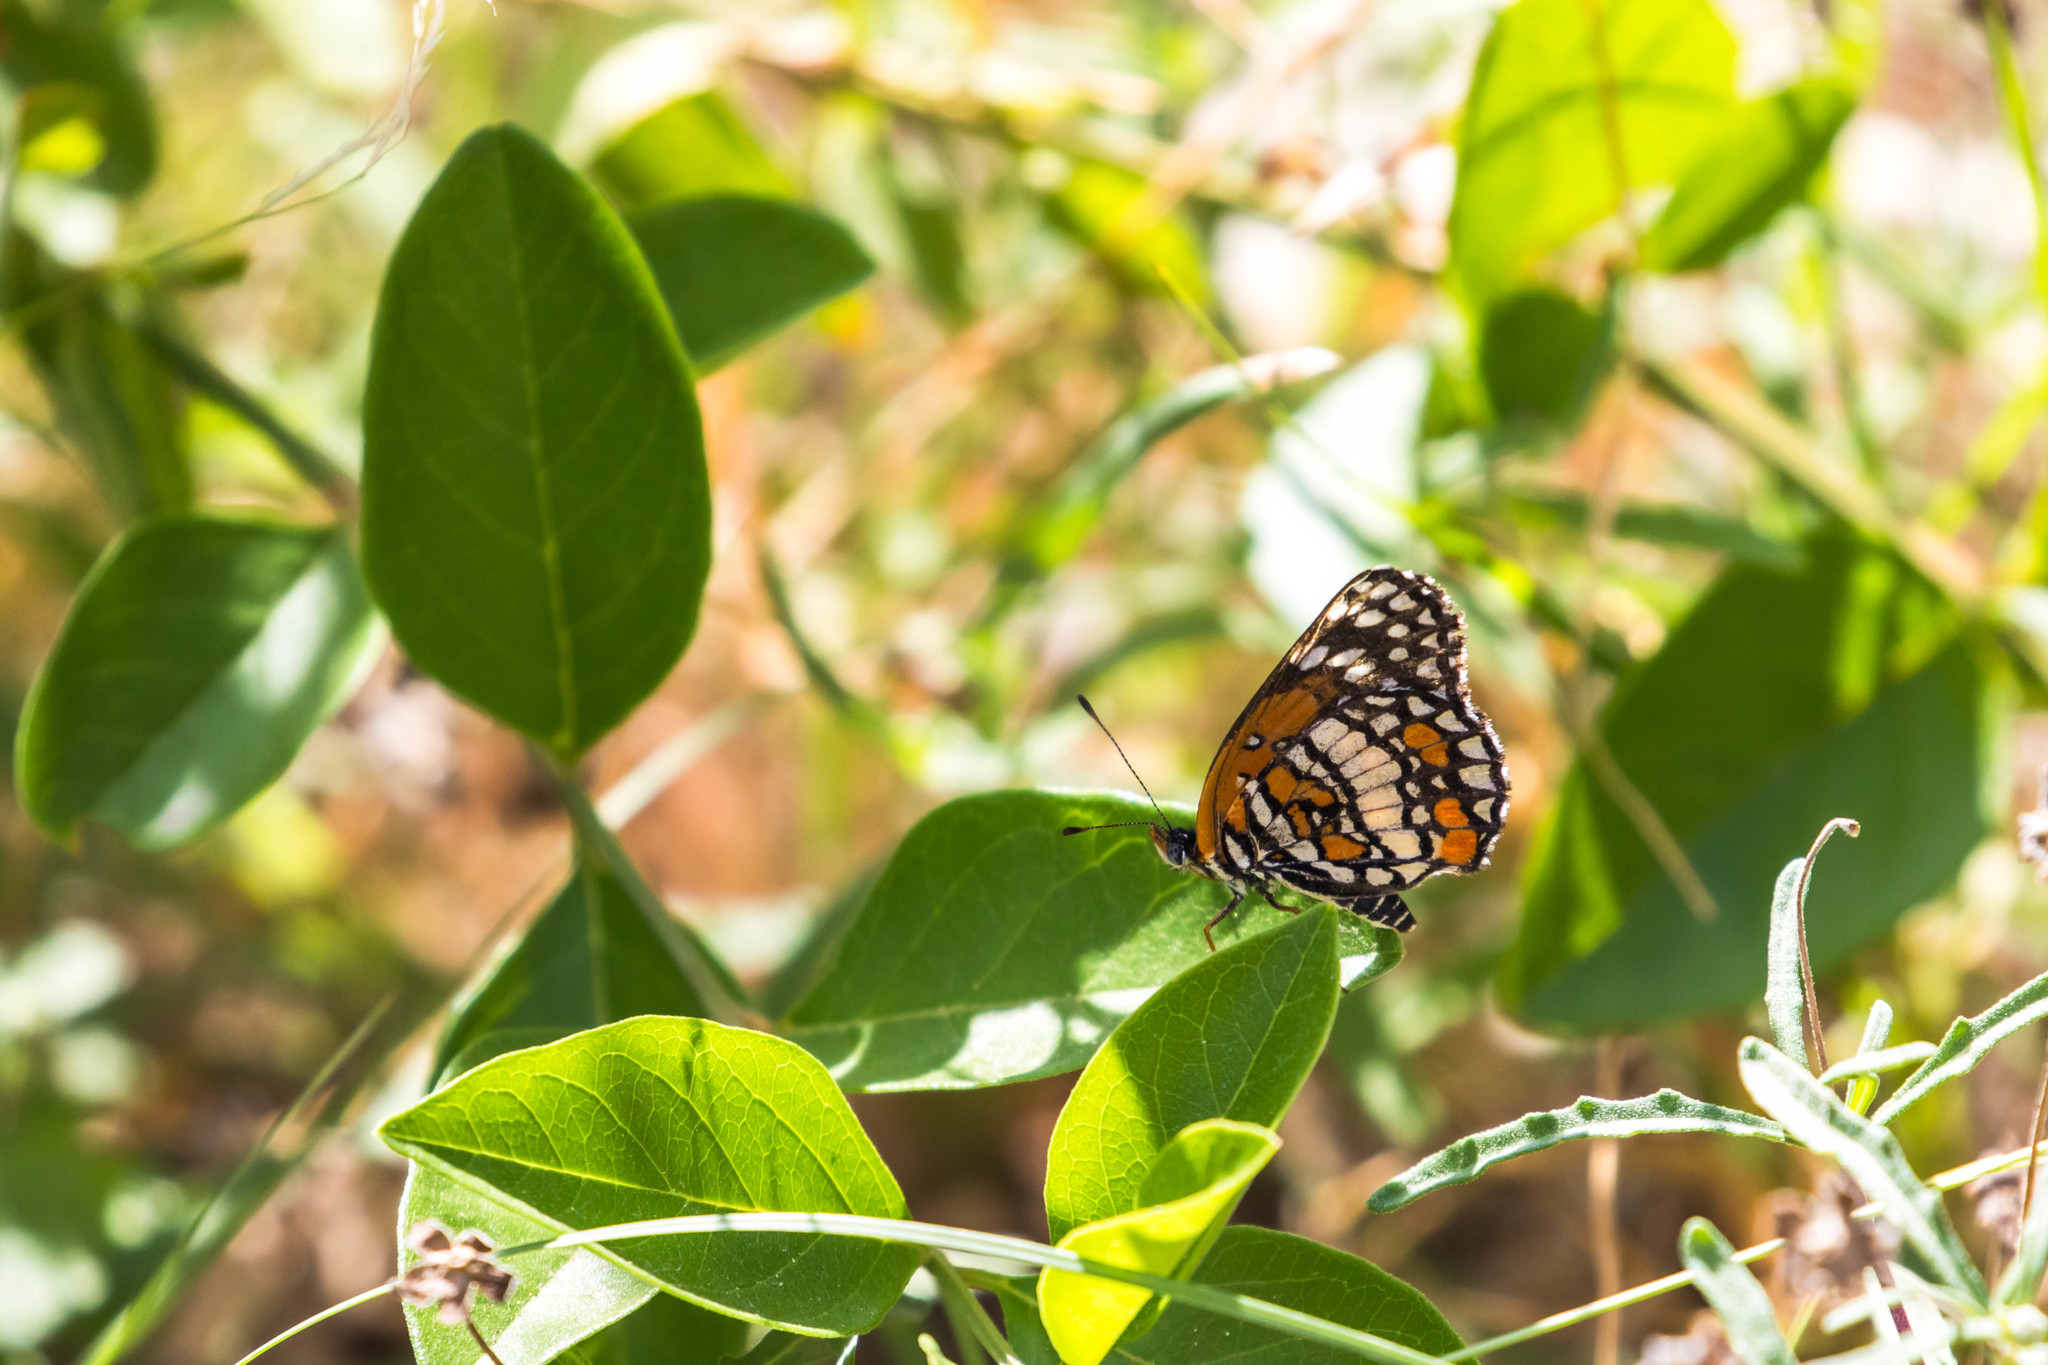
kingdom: Animalia
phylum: Arthropoda
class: Insecta
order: Lepidoptera
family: Nymphalidae
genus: Chlosyne
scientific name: Chlosyne endeis
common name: Banded checkerspot
